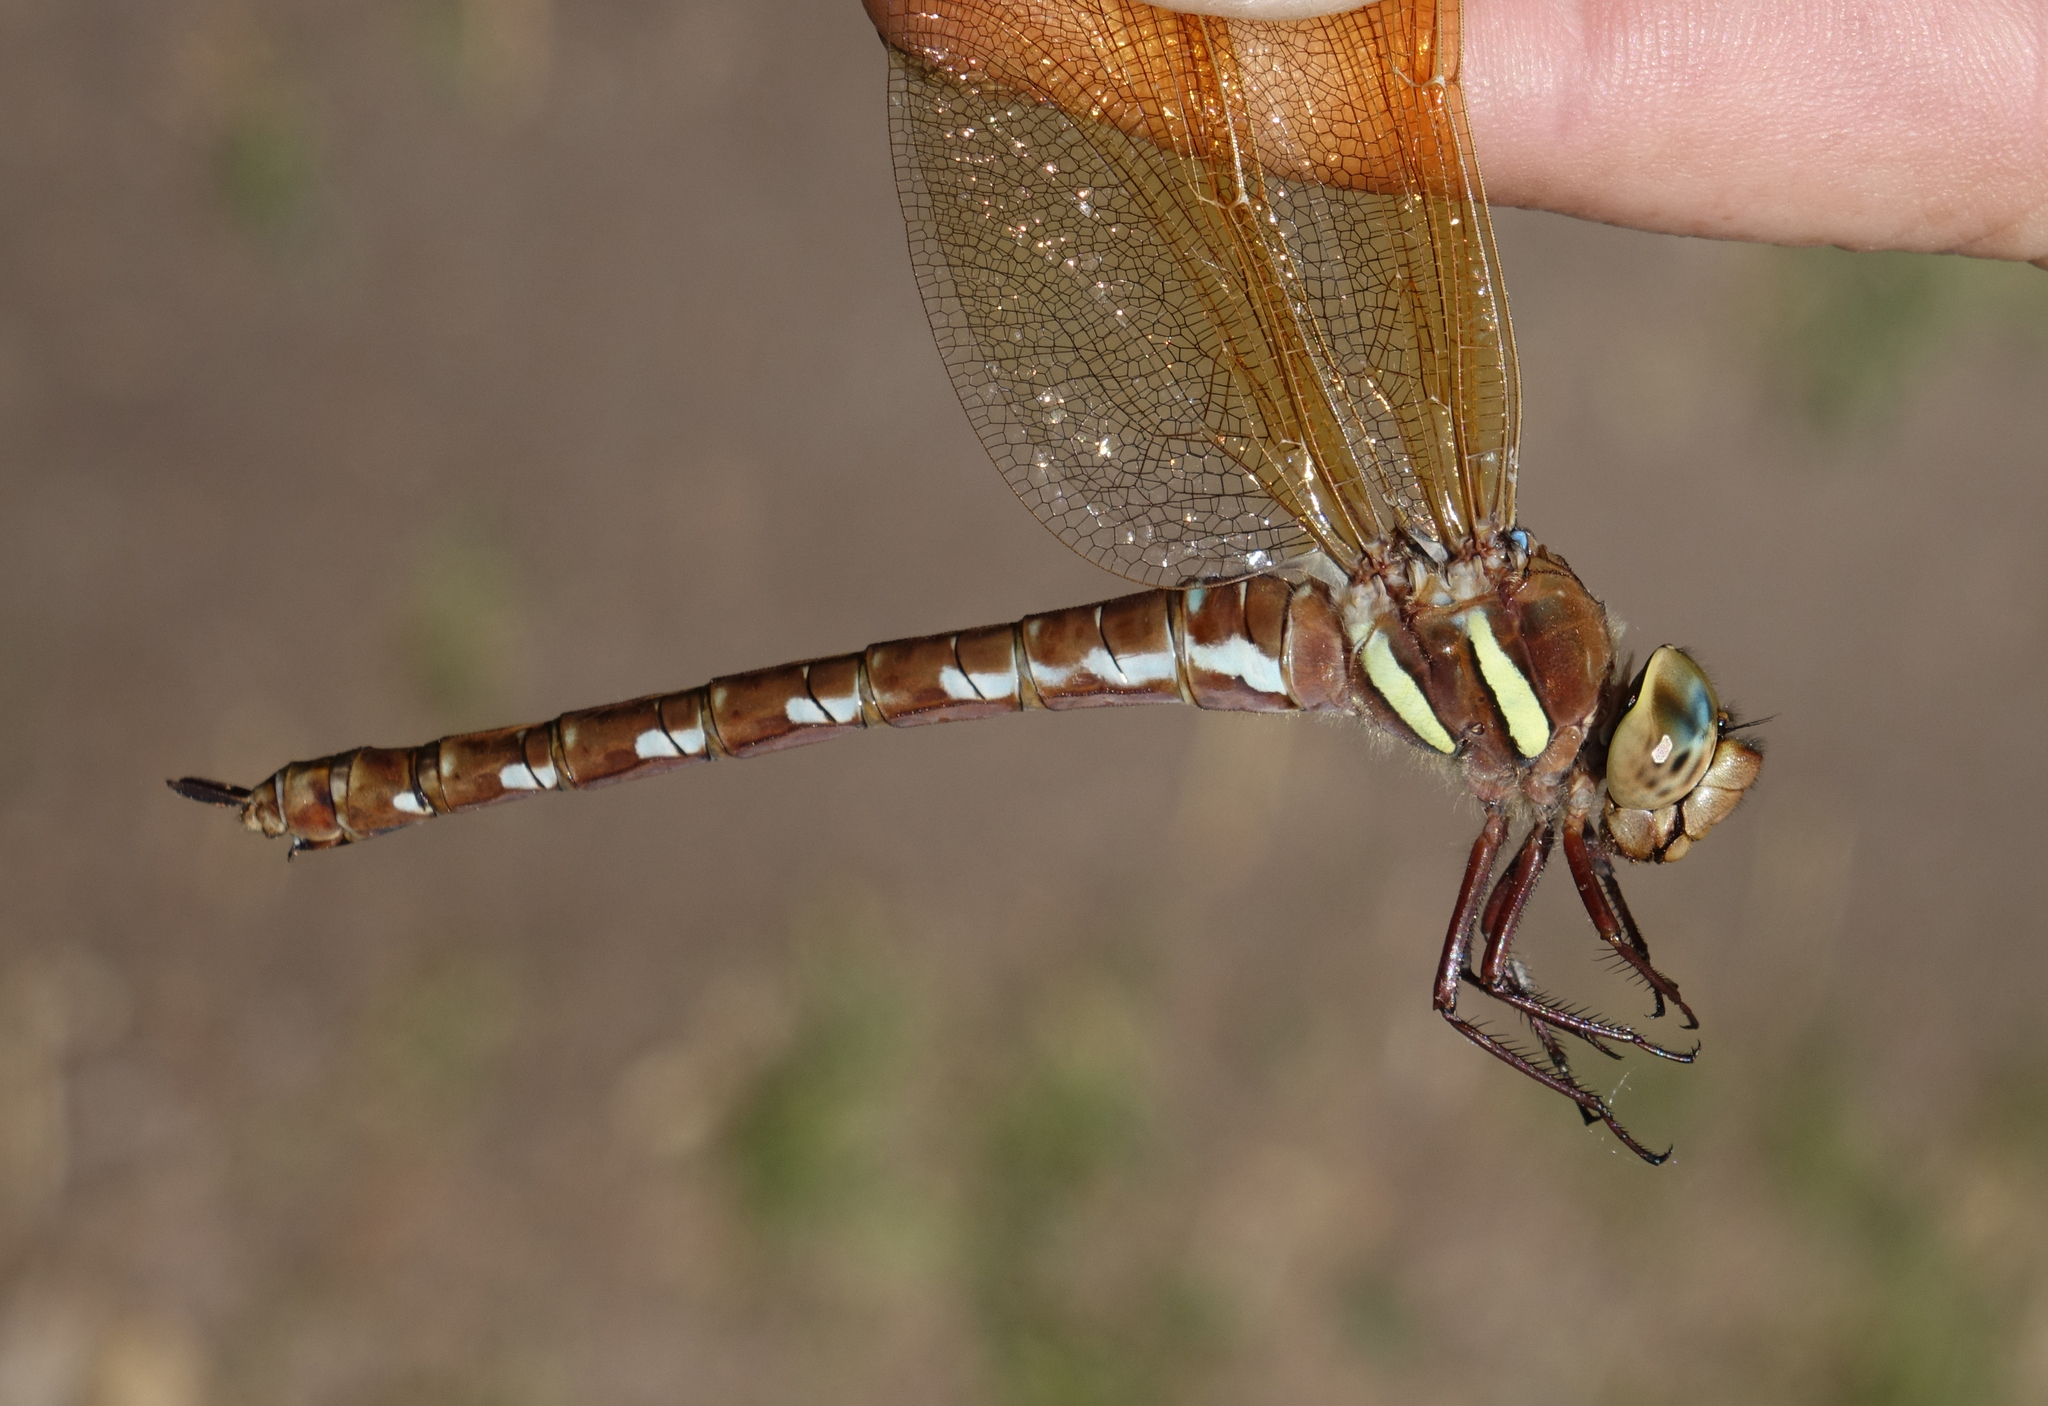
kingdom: Animalia
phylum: Arthropoda
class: Insecta
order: Odonata
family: Aeshnidae
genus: Aeshna
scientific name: Aeshna grandis
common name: Brown hawker
